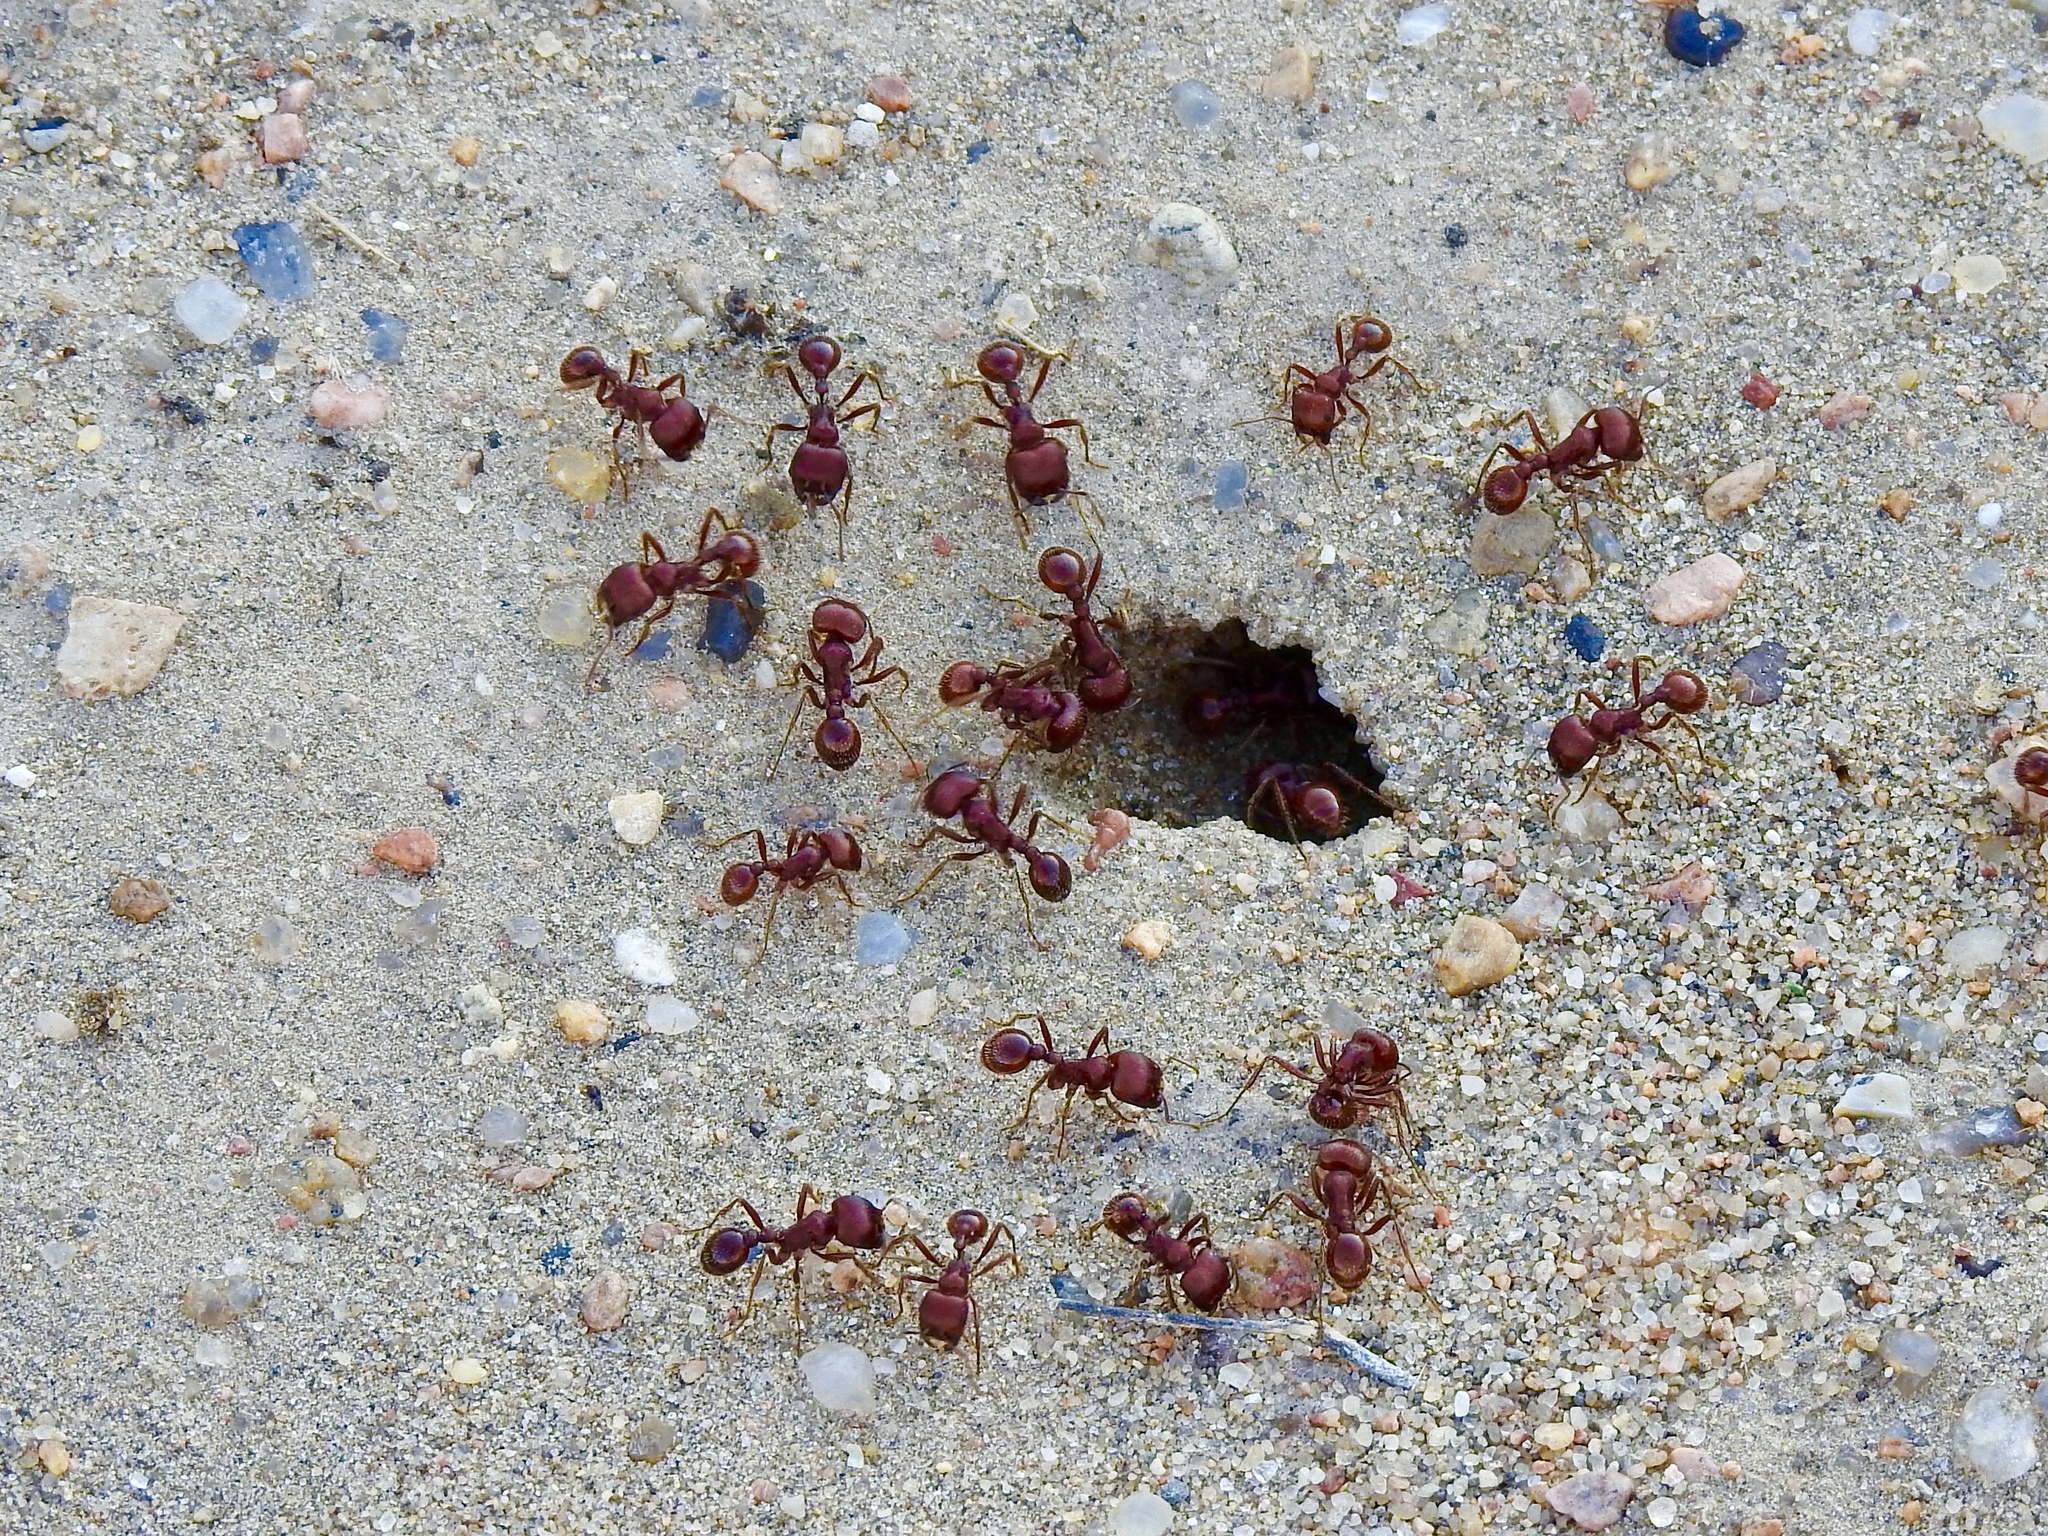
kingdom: Animalia
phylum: Arthropoda
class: Insecta
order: Hymenoptera
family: Formicidae
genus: Pogonomyrmex
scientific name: Pogonomyrmex barbatus
